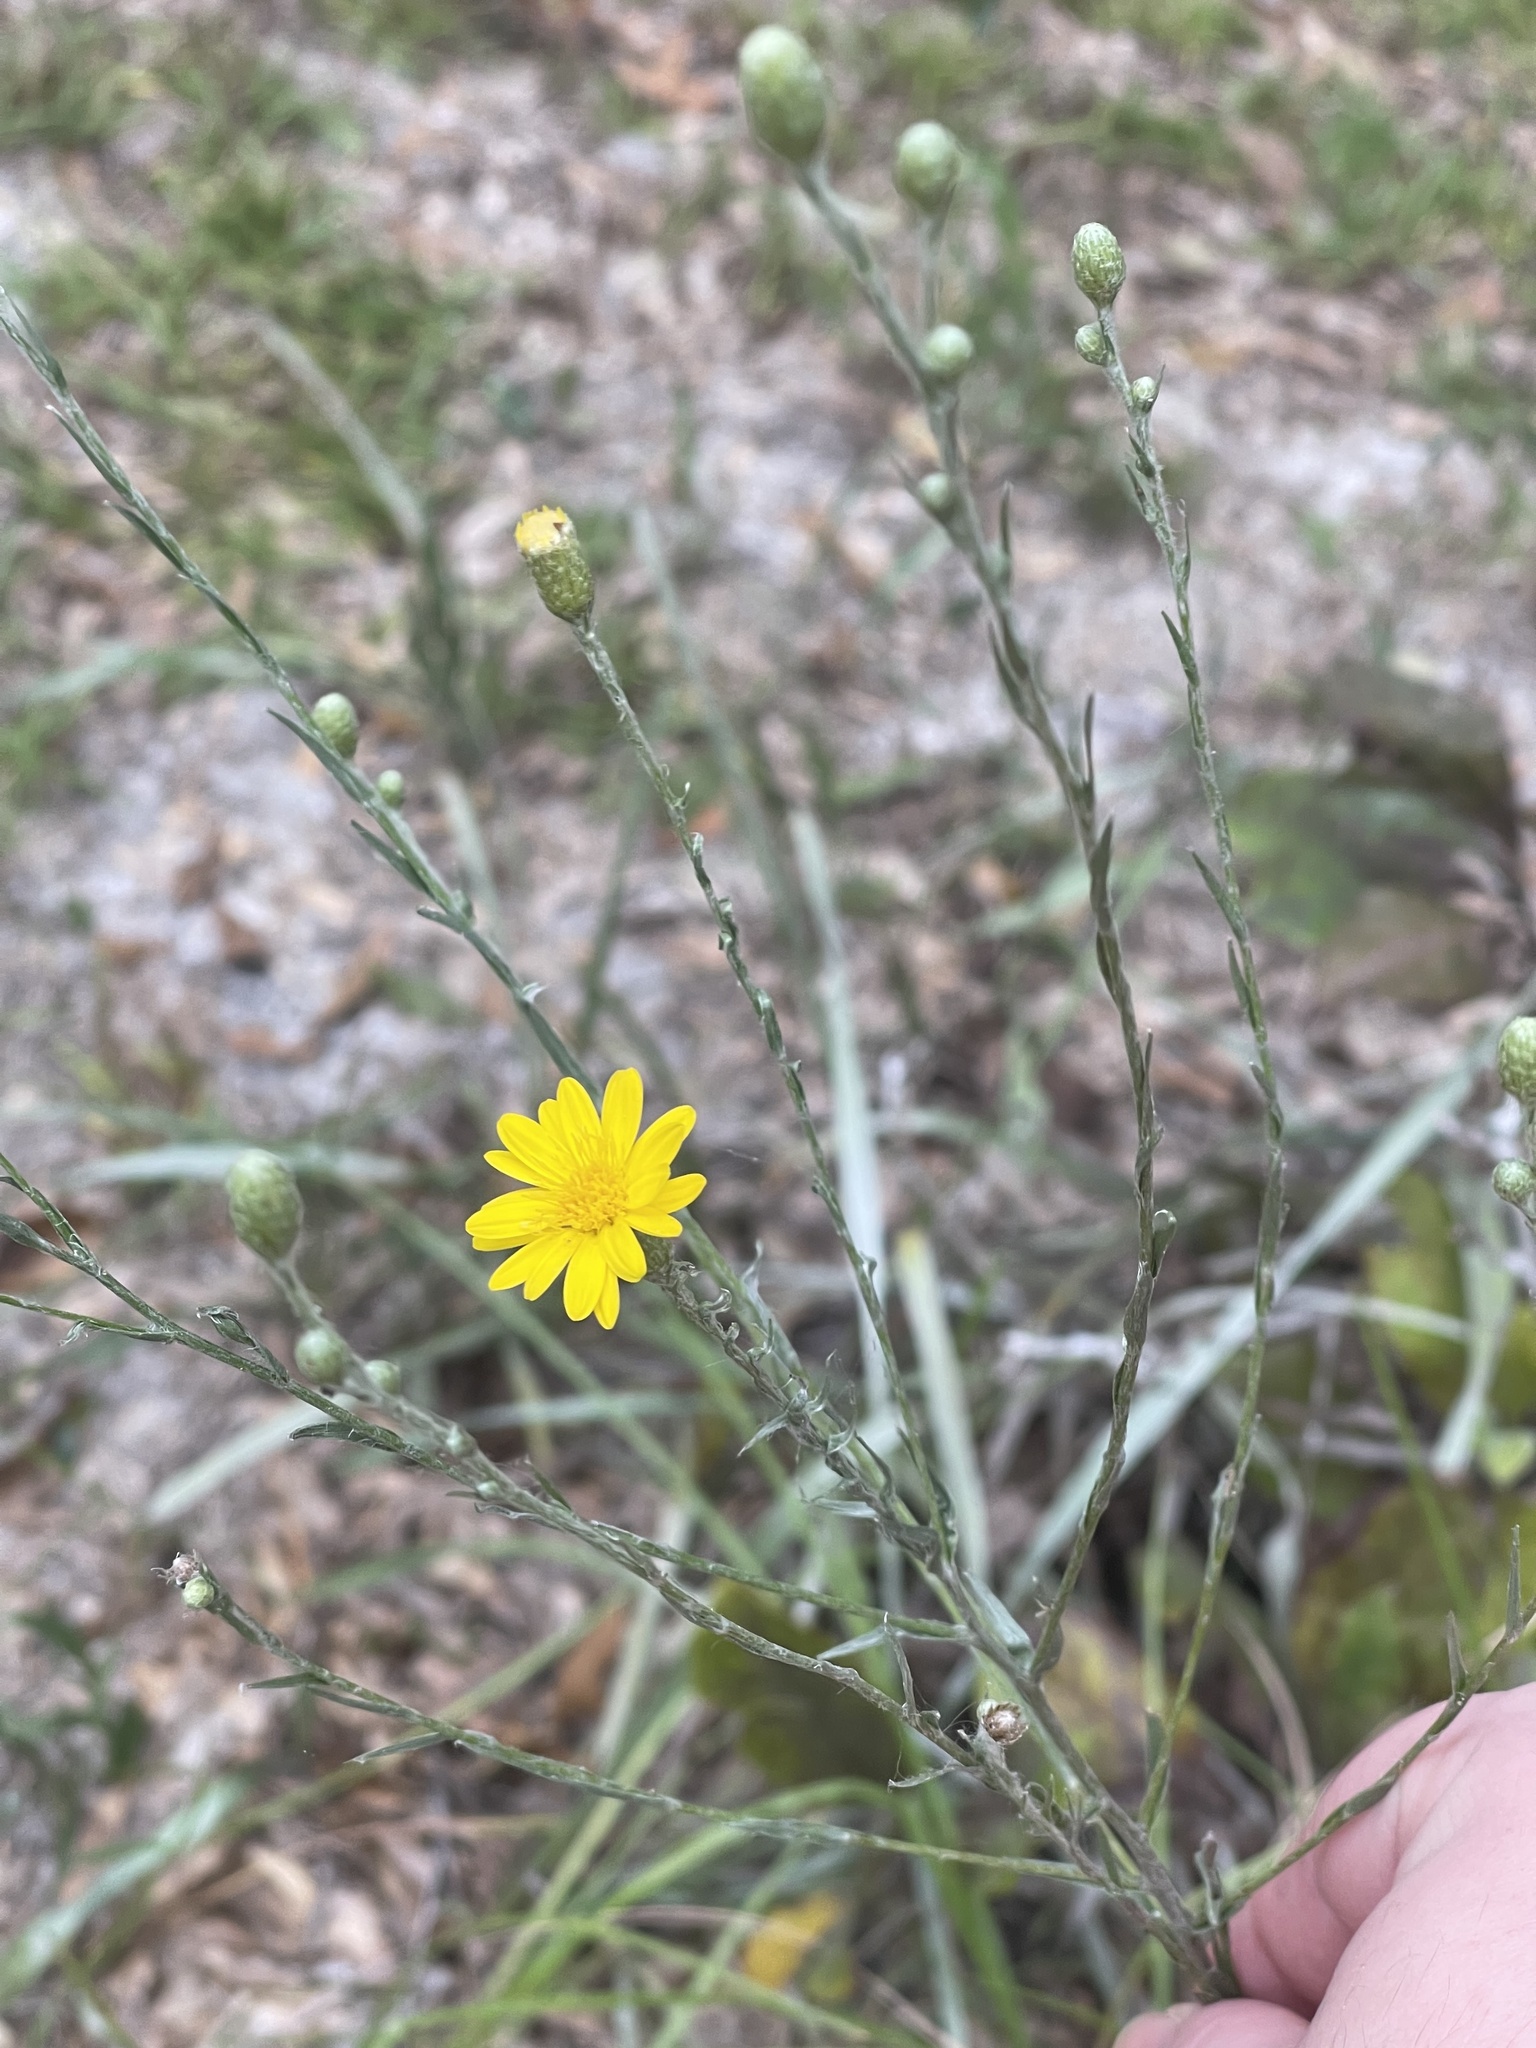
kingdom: Plantae
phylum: Tracheophyta
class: Magnoliopsida
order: Asterales
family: Asteraceae
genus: Pityopsis
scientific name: Pityopsis graminifolia
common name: Grass-leaf golden-aster
